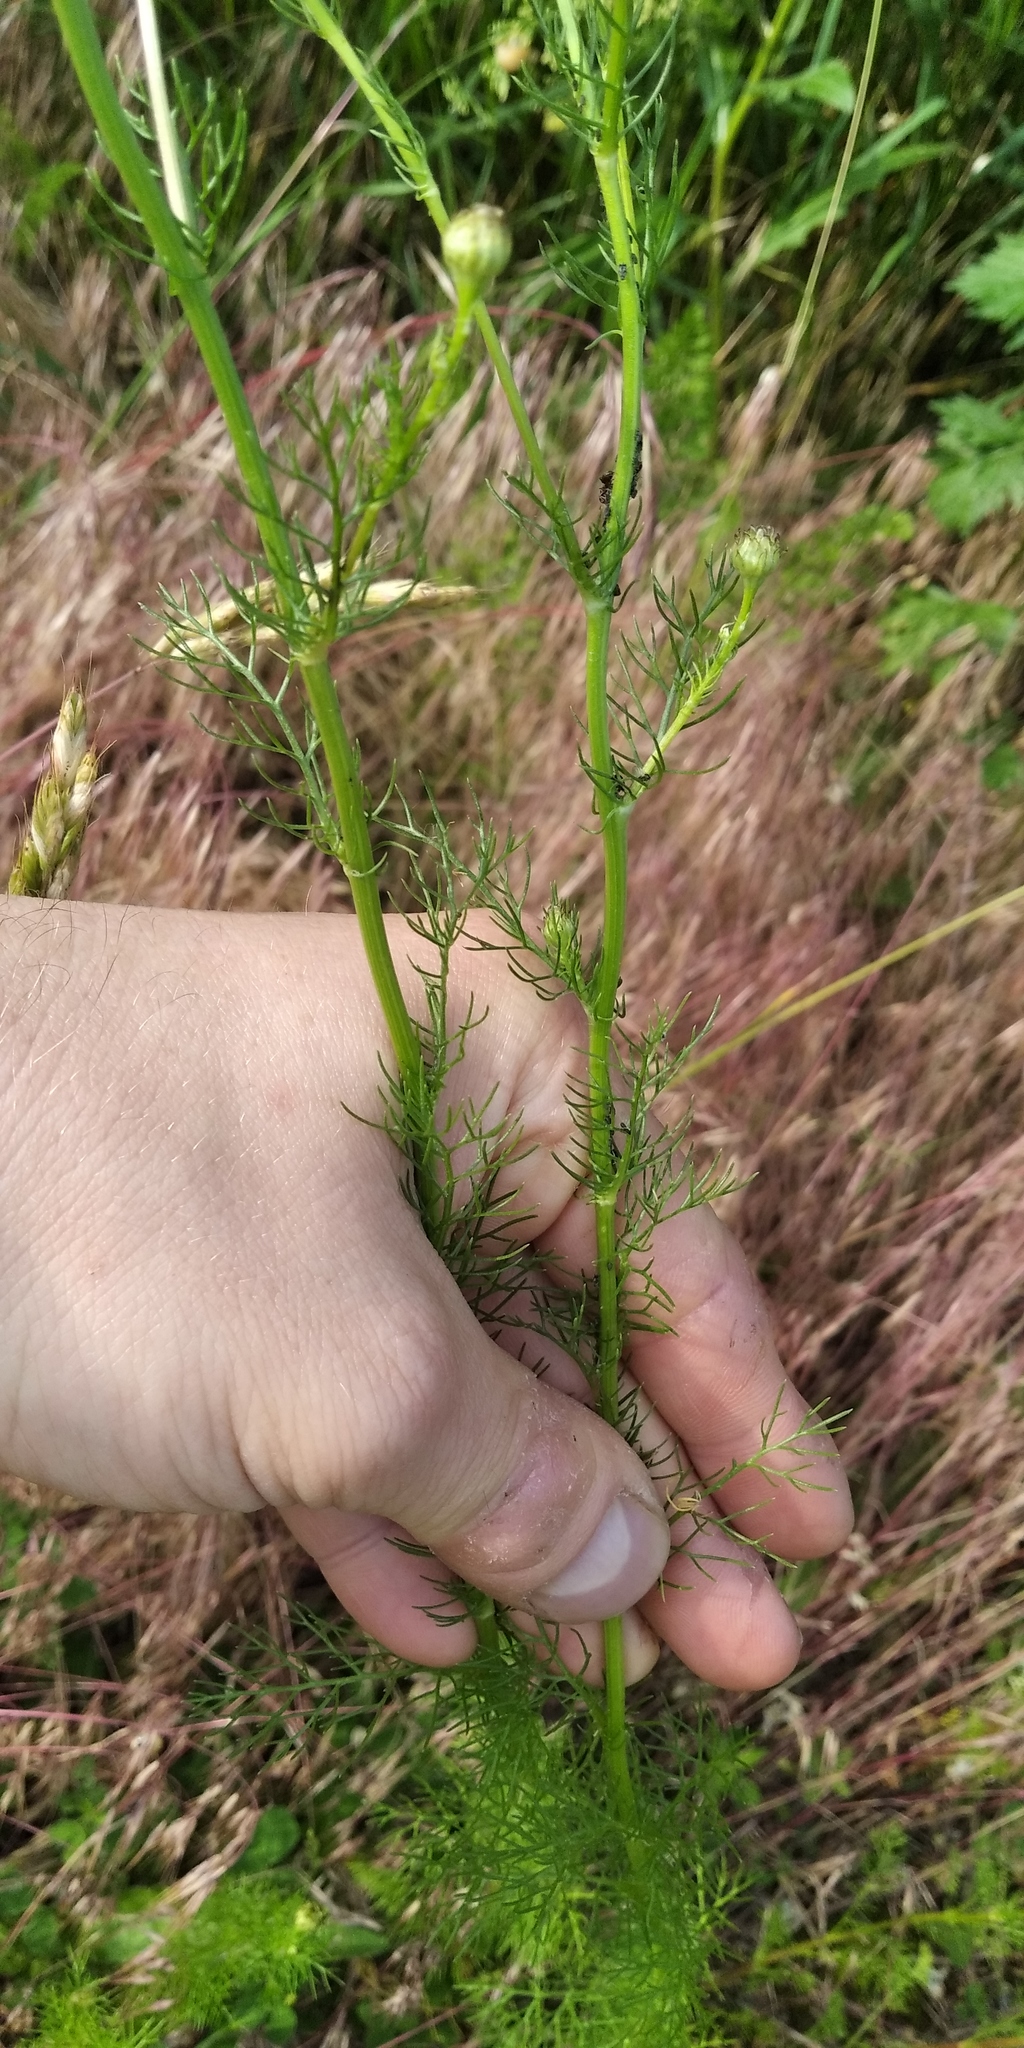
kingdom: Plantae
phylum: Tracheophyta
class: Magnoliopsida
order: Asterales
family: Asteraceae
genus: Tripleurospermum
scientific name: Tripleurospermum inodorum
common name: Scentless mayweed
